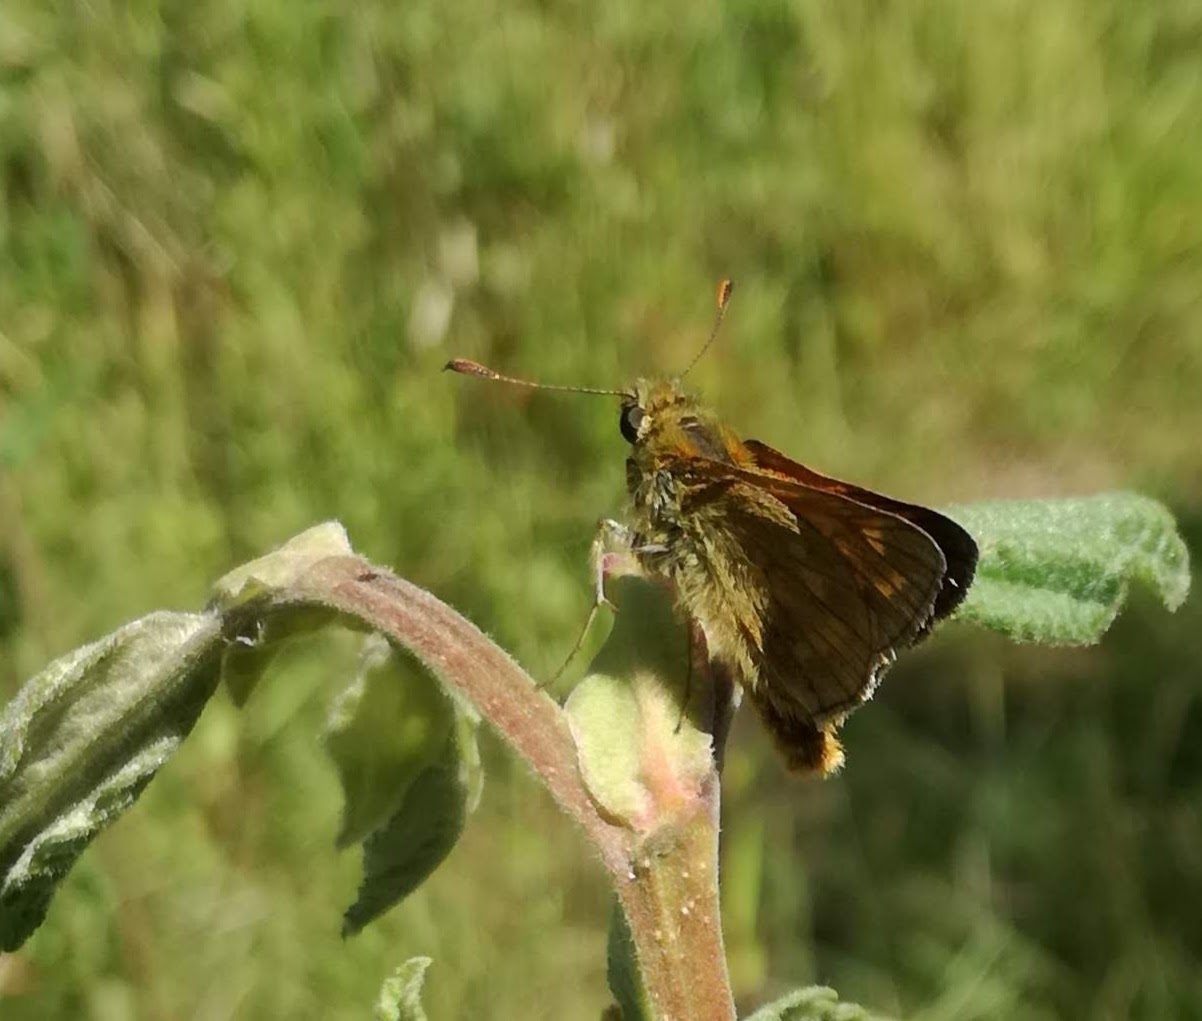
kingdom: Animalia
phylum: Arthropoda
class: Insecta
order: Lepidoptera
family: Hesperiidae
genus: Ochlodes
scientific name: Ochlodes venata
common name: Large skipper
